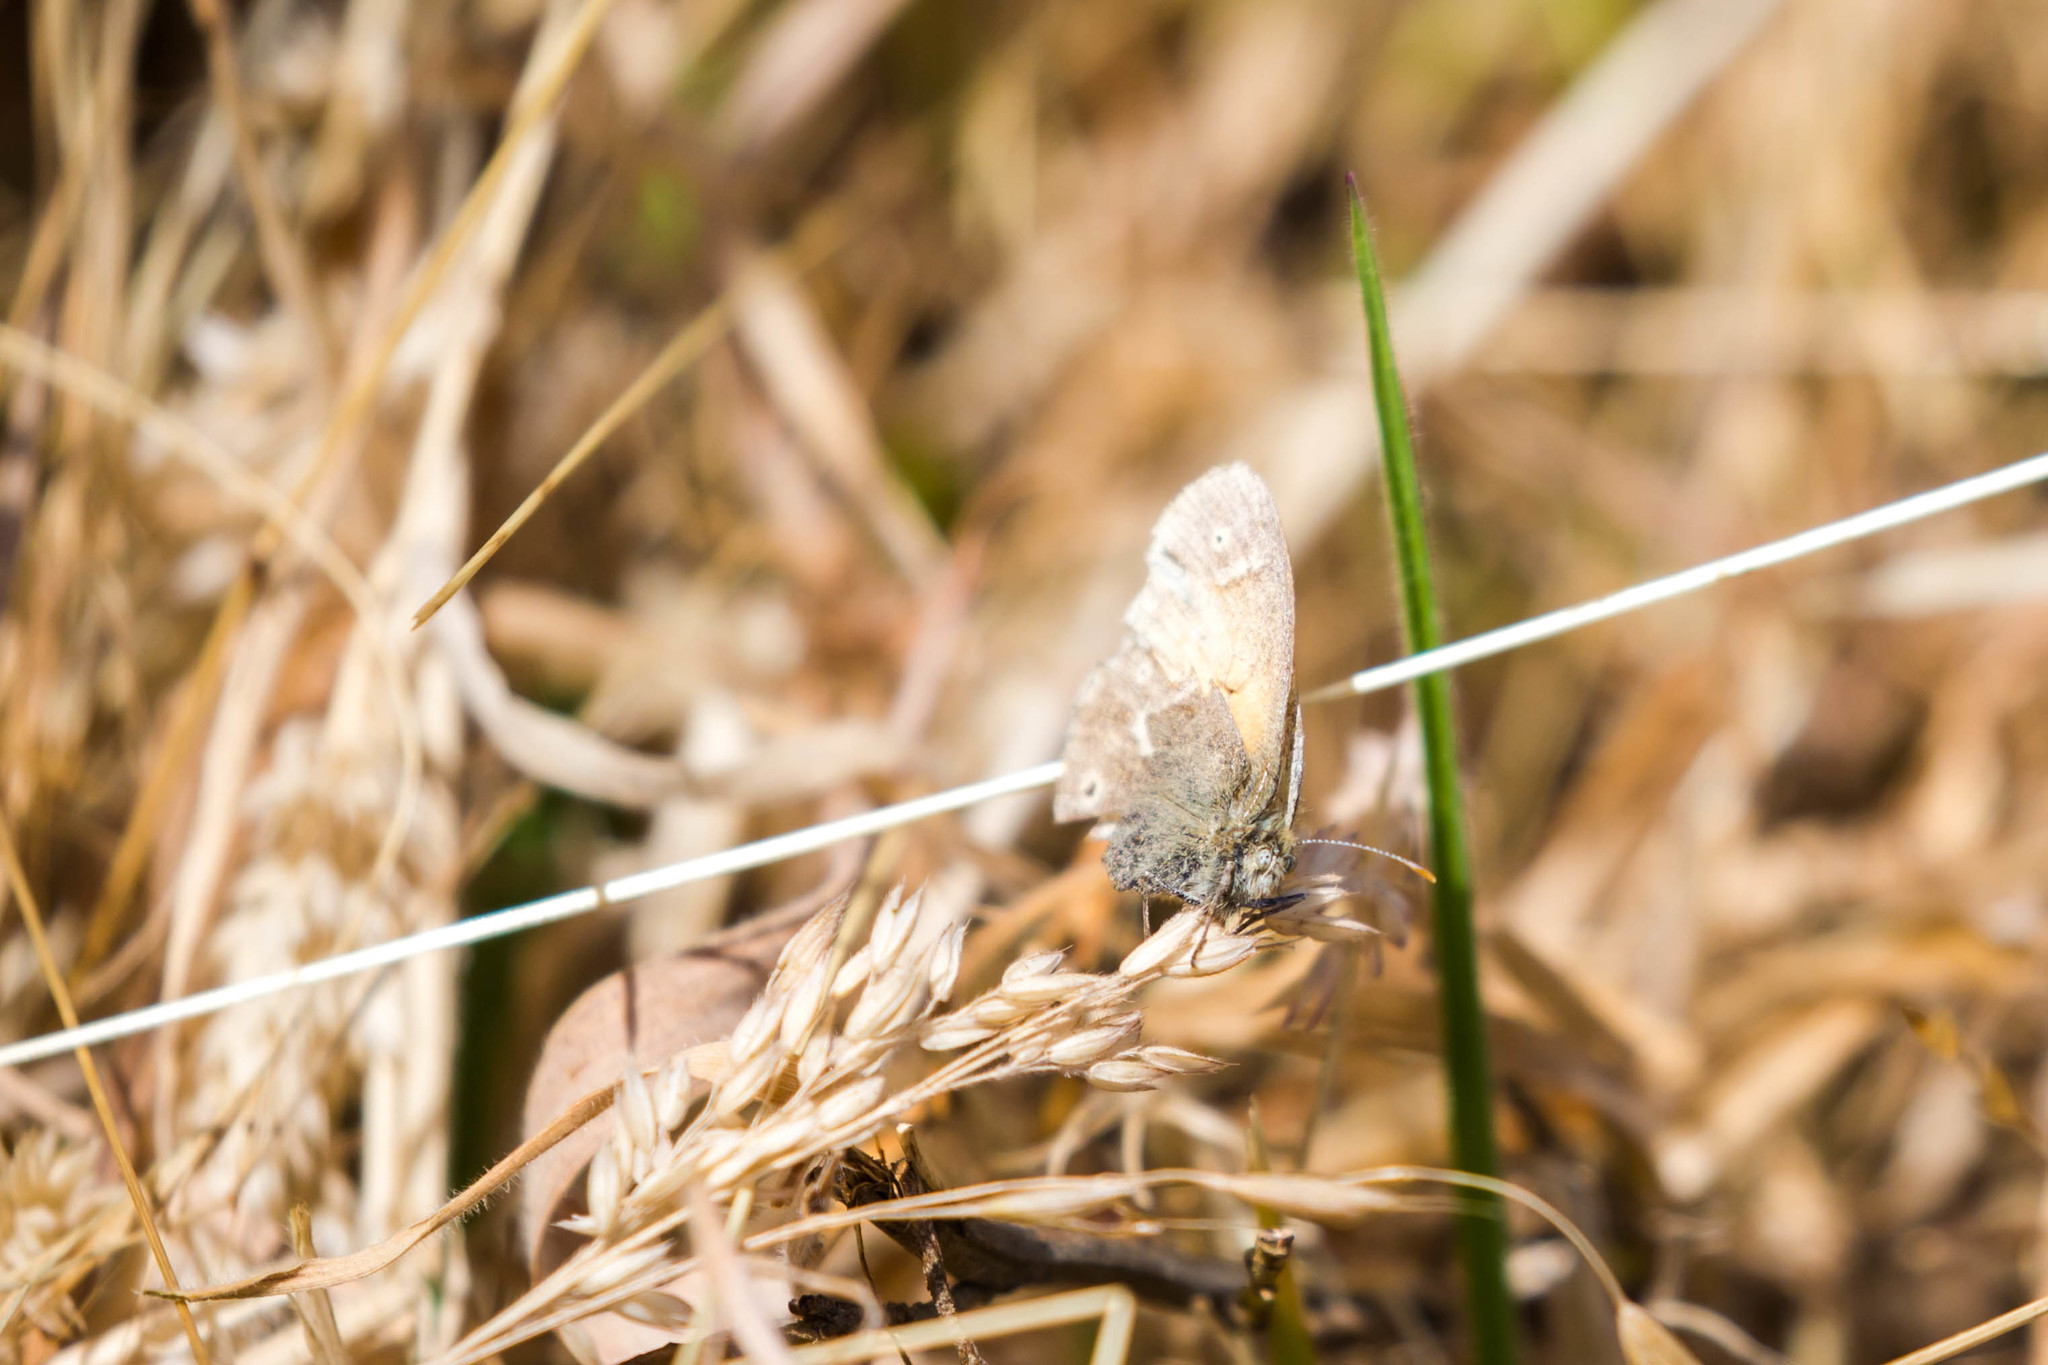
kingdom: Animalia
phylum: Arthropoda
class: Insecta
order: Lepidoptera
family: Nymphalidae
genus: Coenonympha
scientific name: Coenonympha california
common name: Common ringlet
